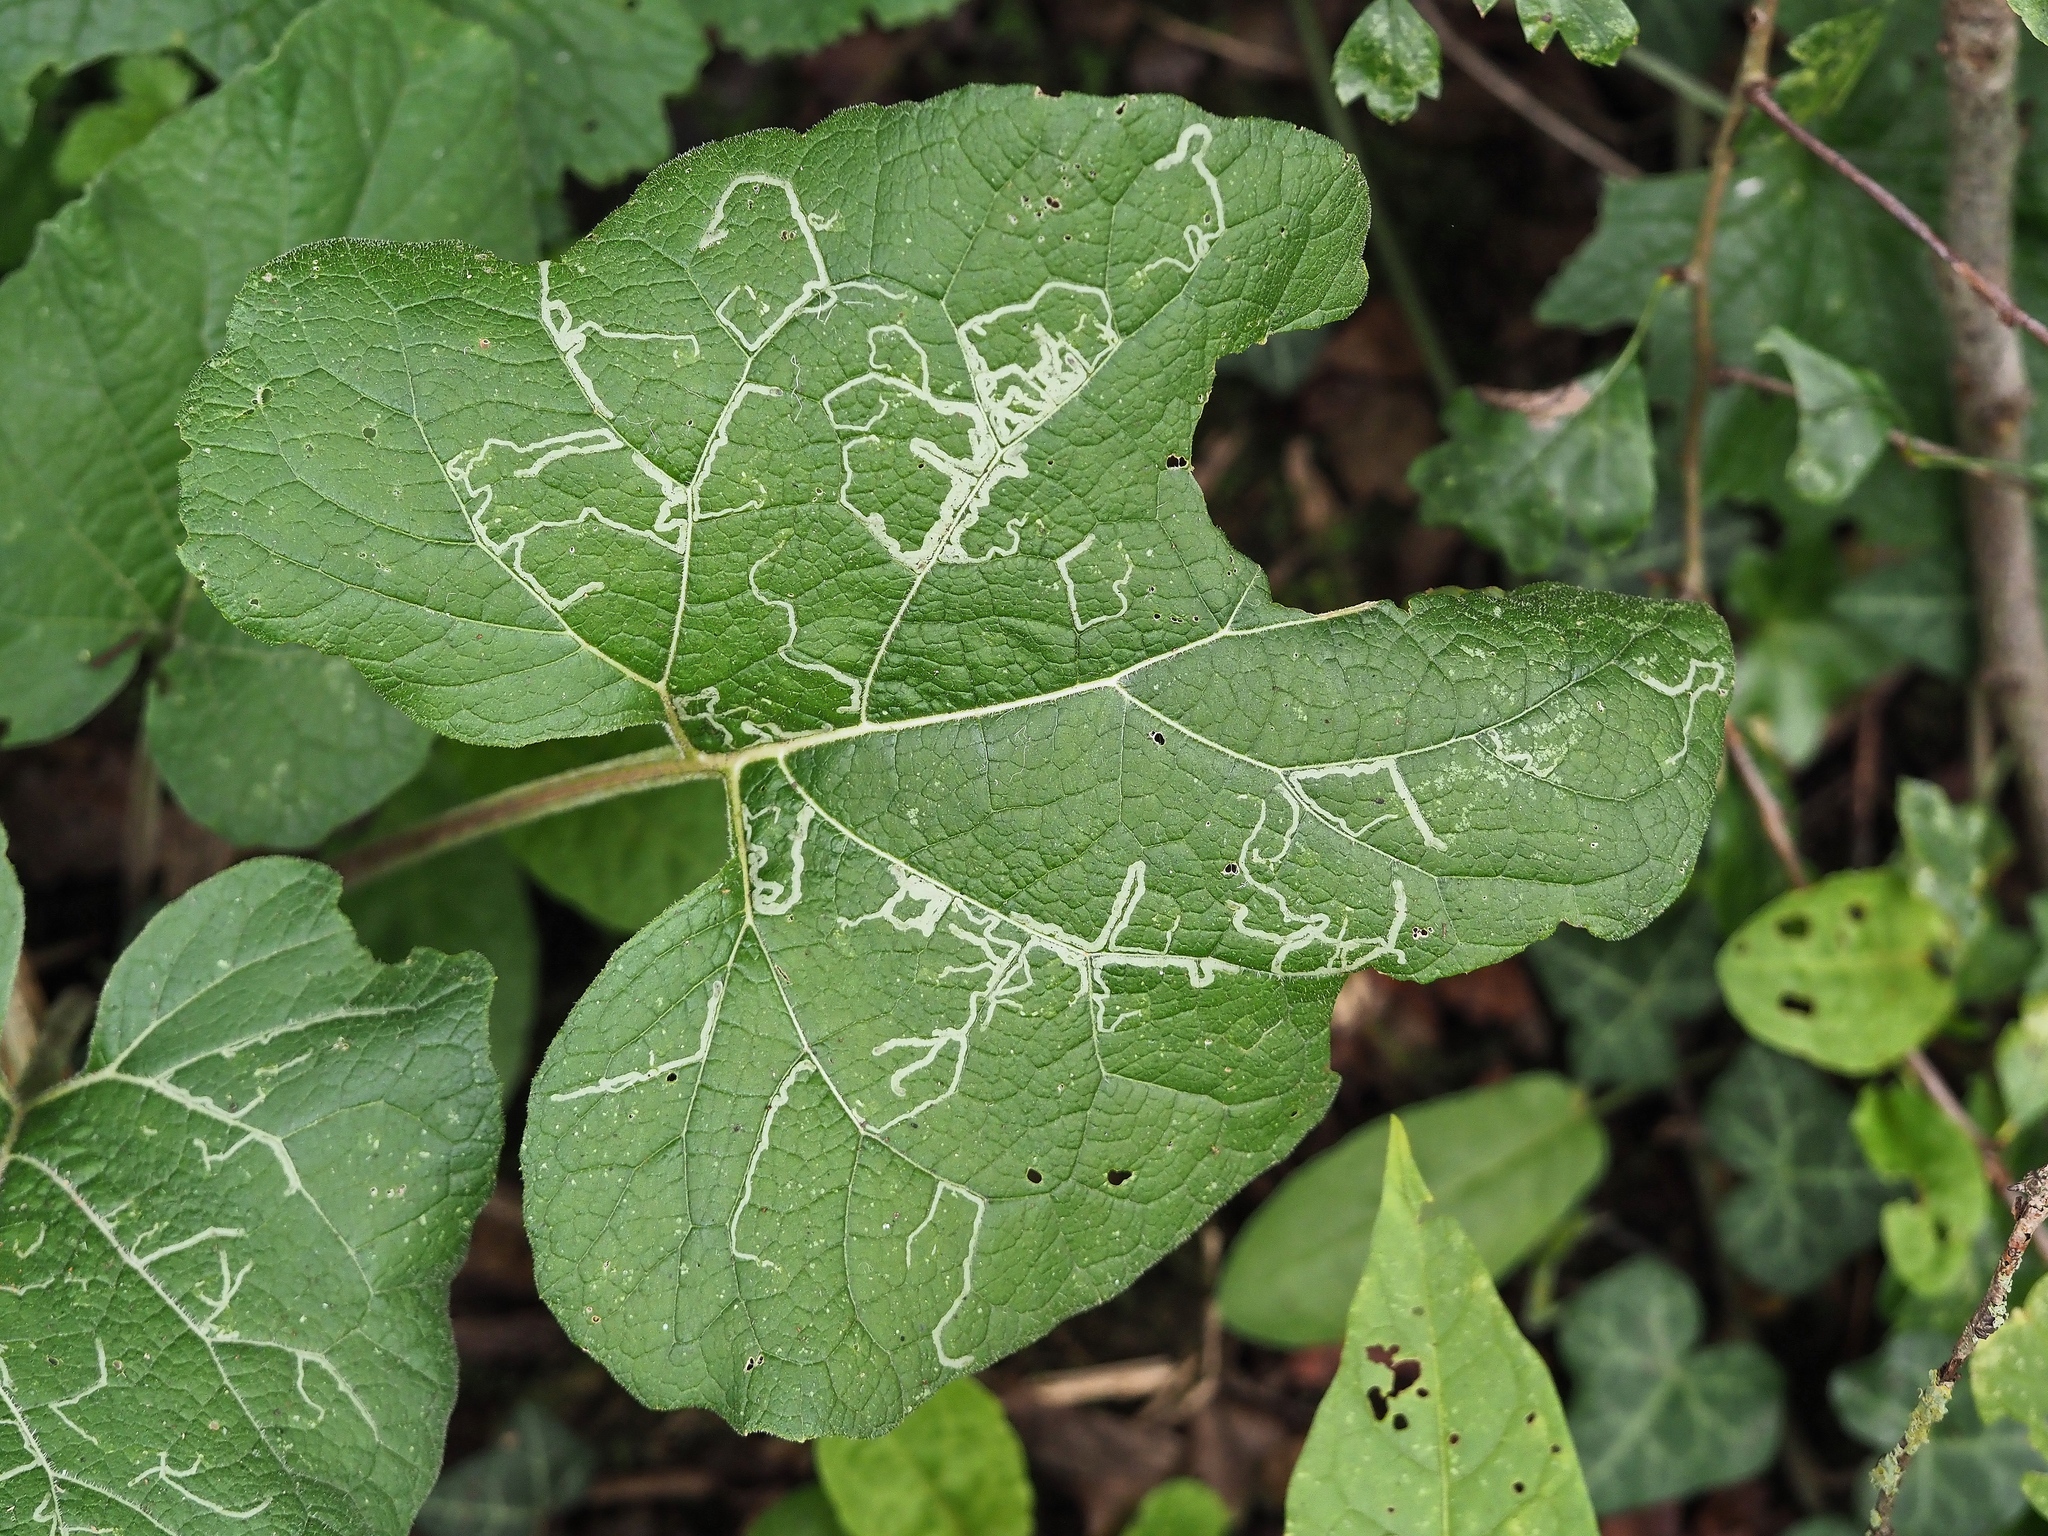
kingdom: Animalia
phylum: Arthropoda
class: Insecta
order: Diptera
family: Agromyzidae
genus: Phytomyza
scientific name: Phytomyza lappae
